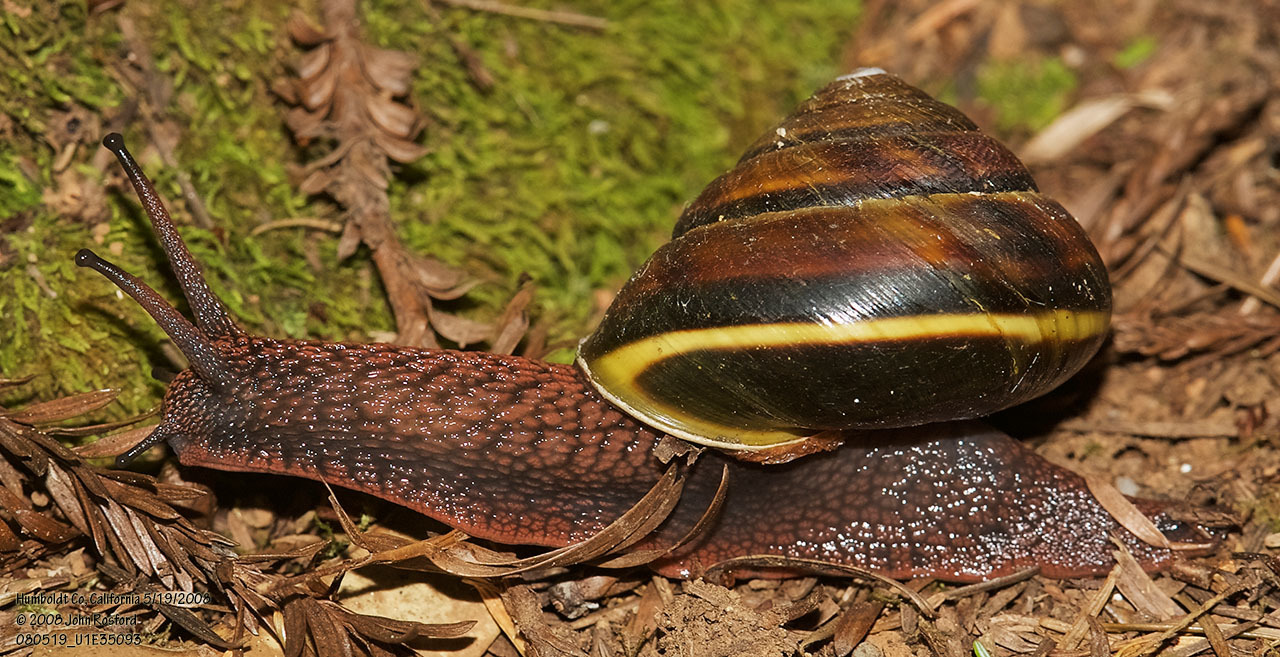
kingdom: Animalia
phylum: Mollusca
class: Gastropoda
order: Stylommatophora
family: Xanthonychidae
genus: Monadenia
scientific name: Monadenia fidelis
